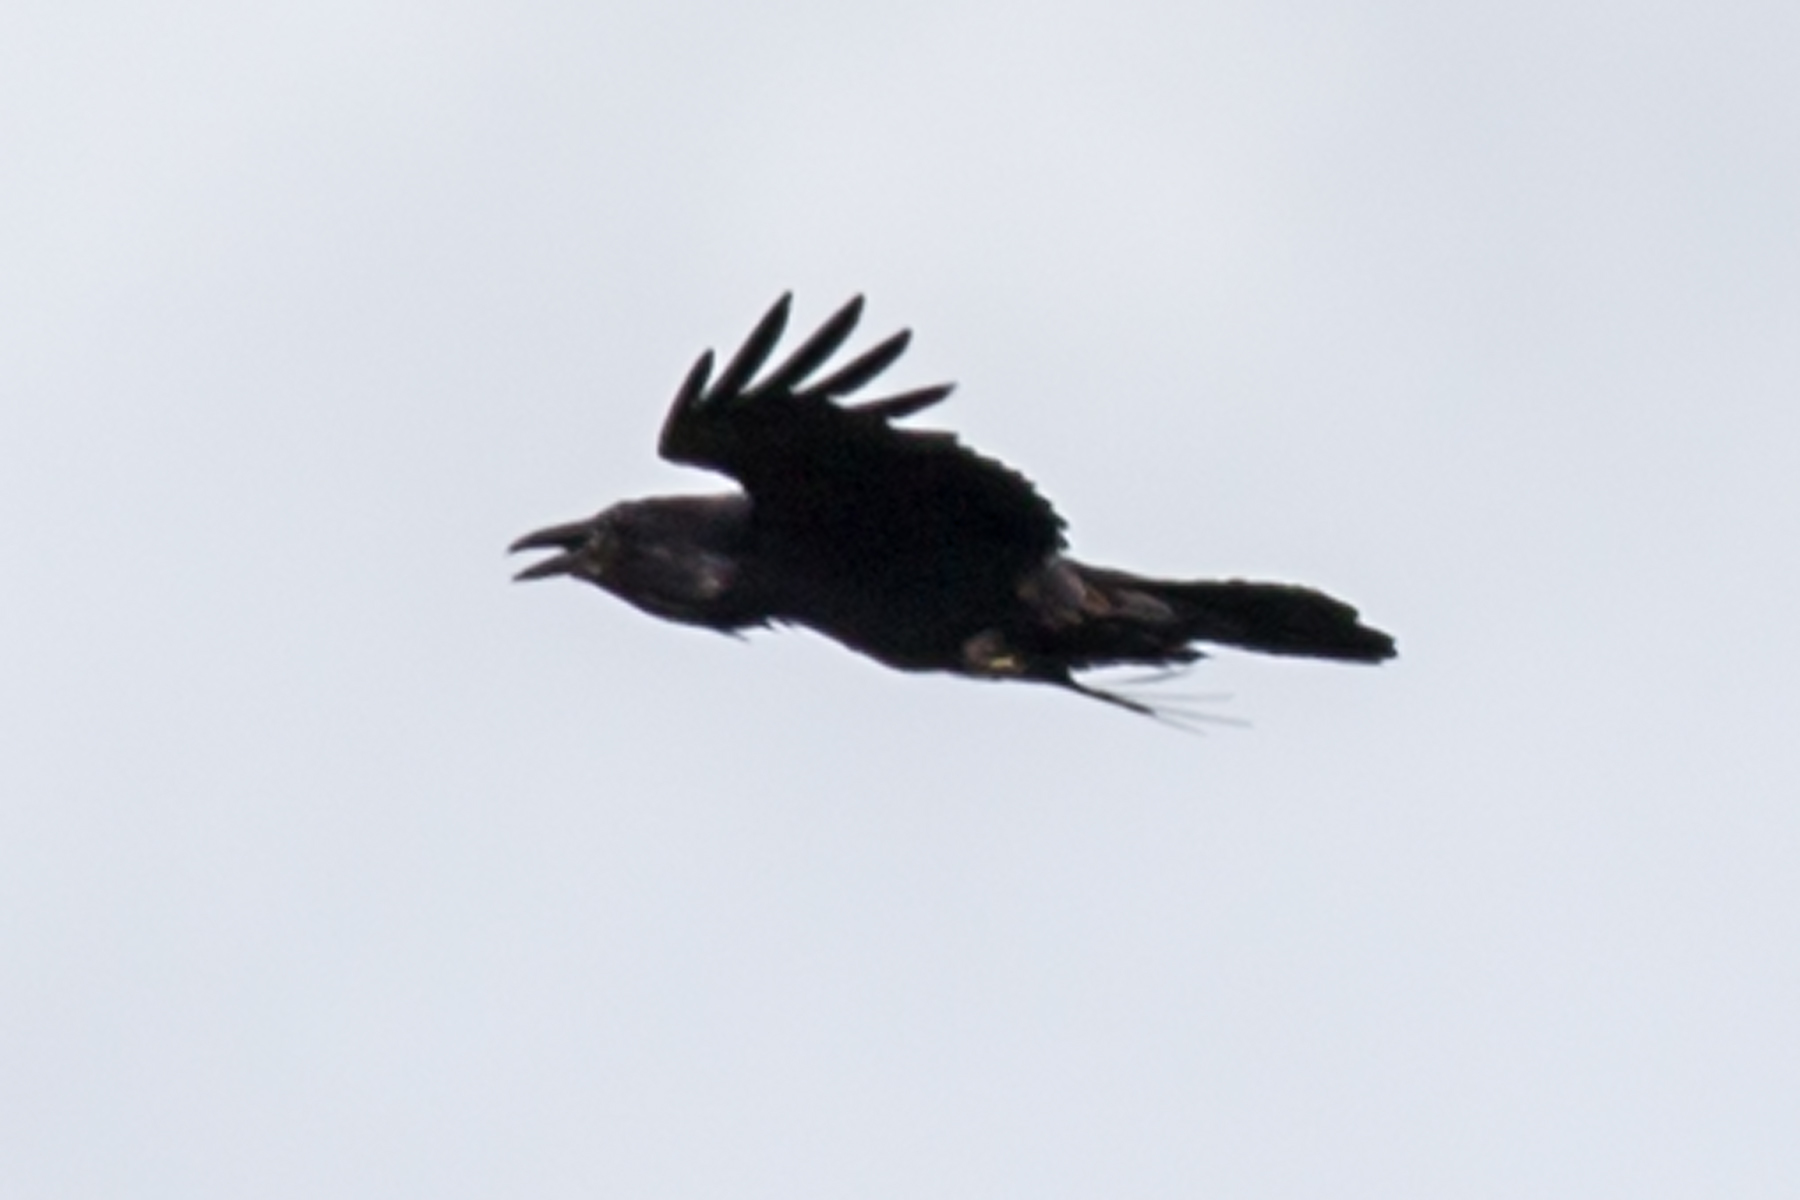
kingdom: Animalia
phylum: Chordata
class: Aves
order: Passeriformes
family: Corvidae
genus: Corvus
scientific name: Corvus corax
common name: Common raven
